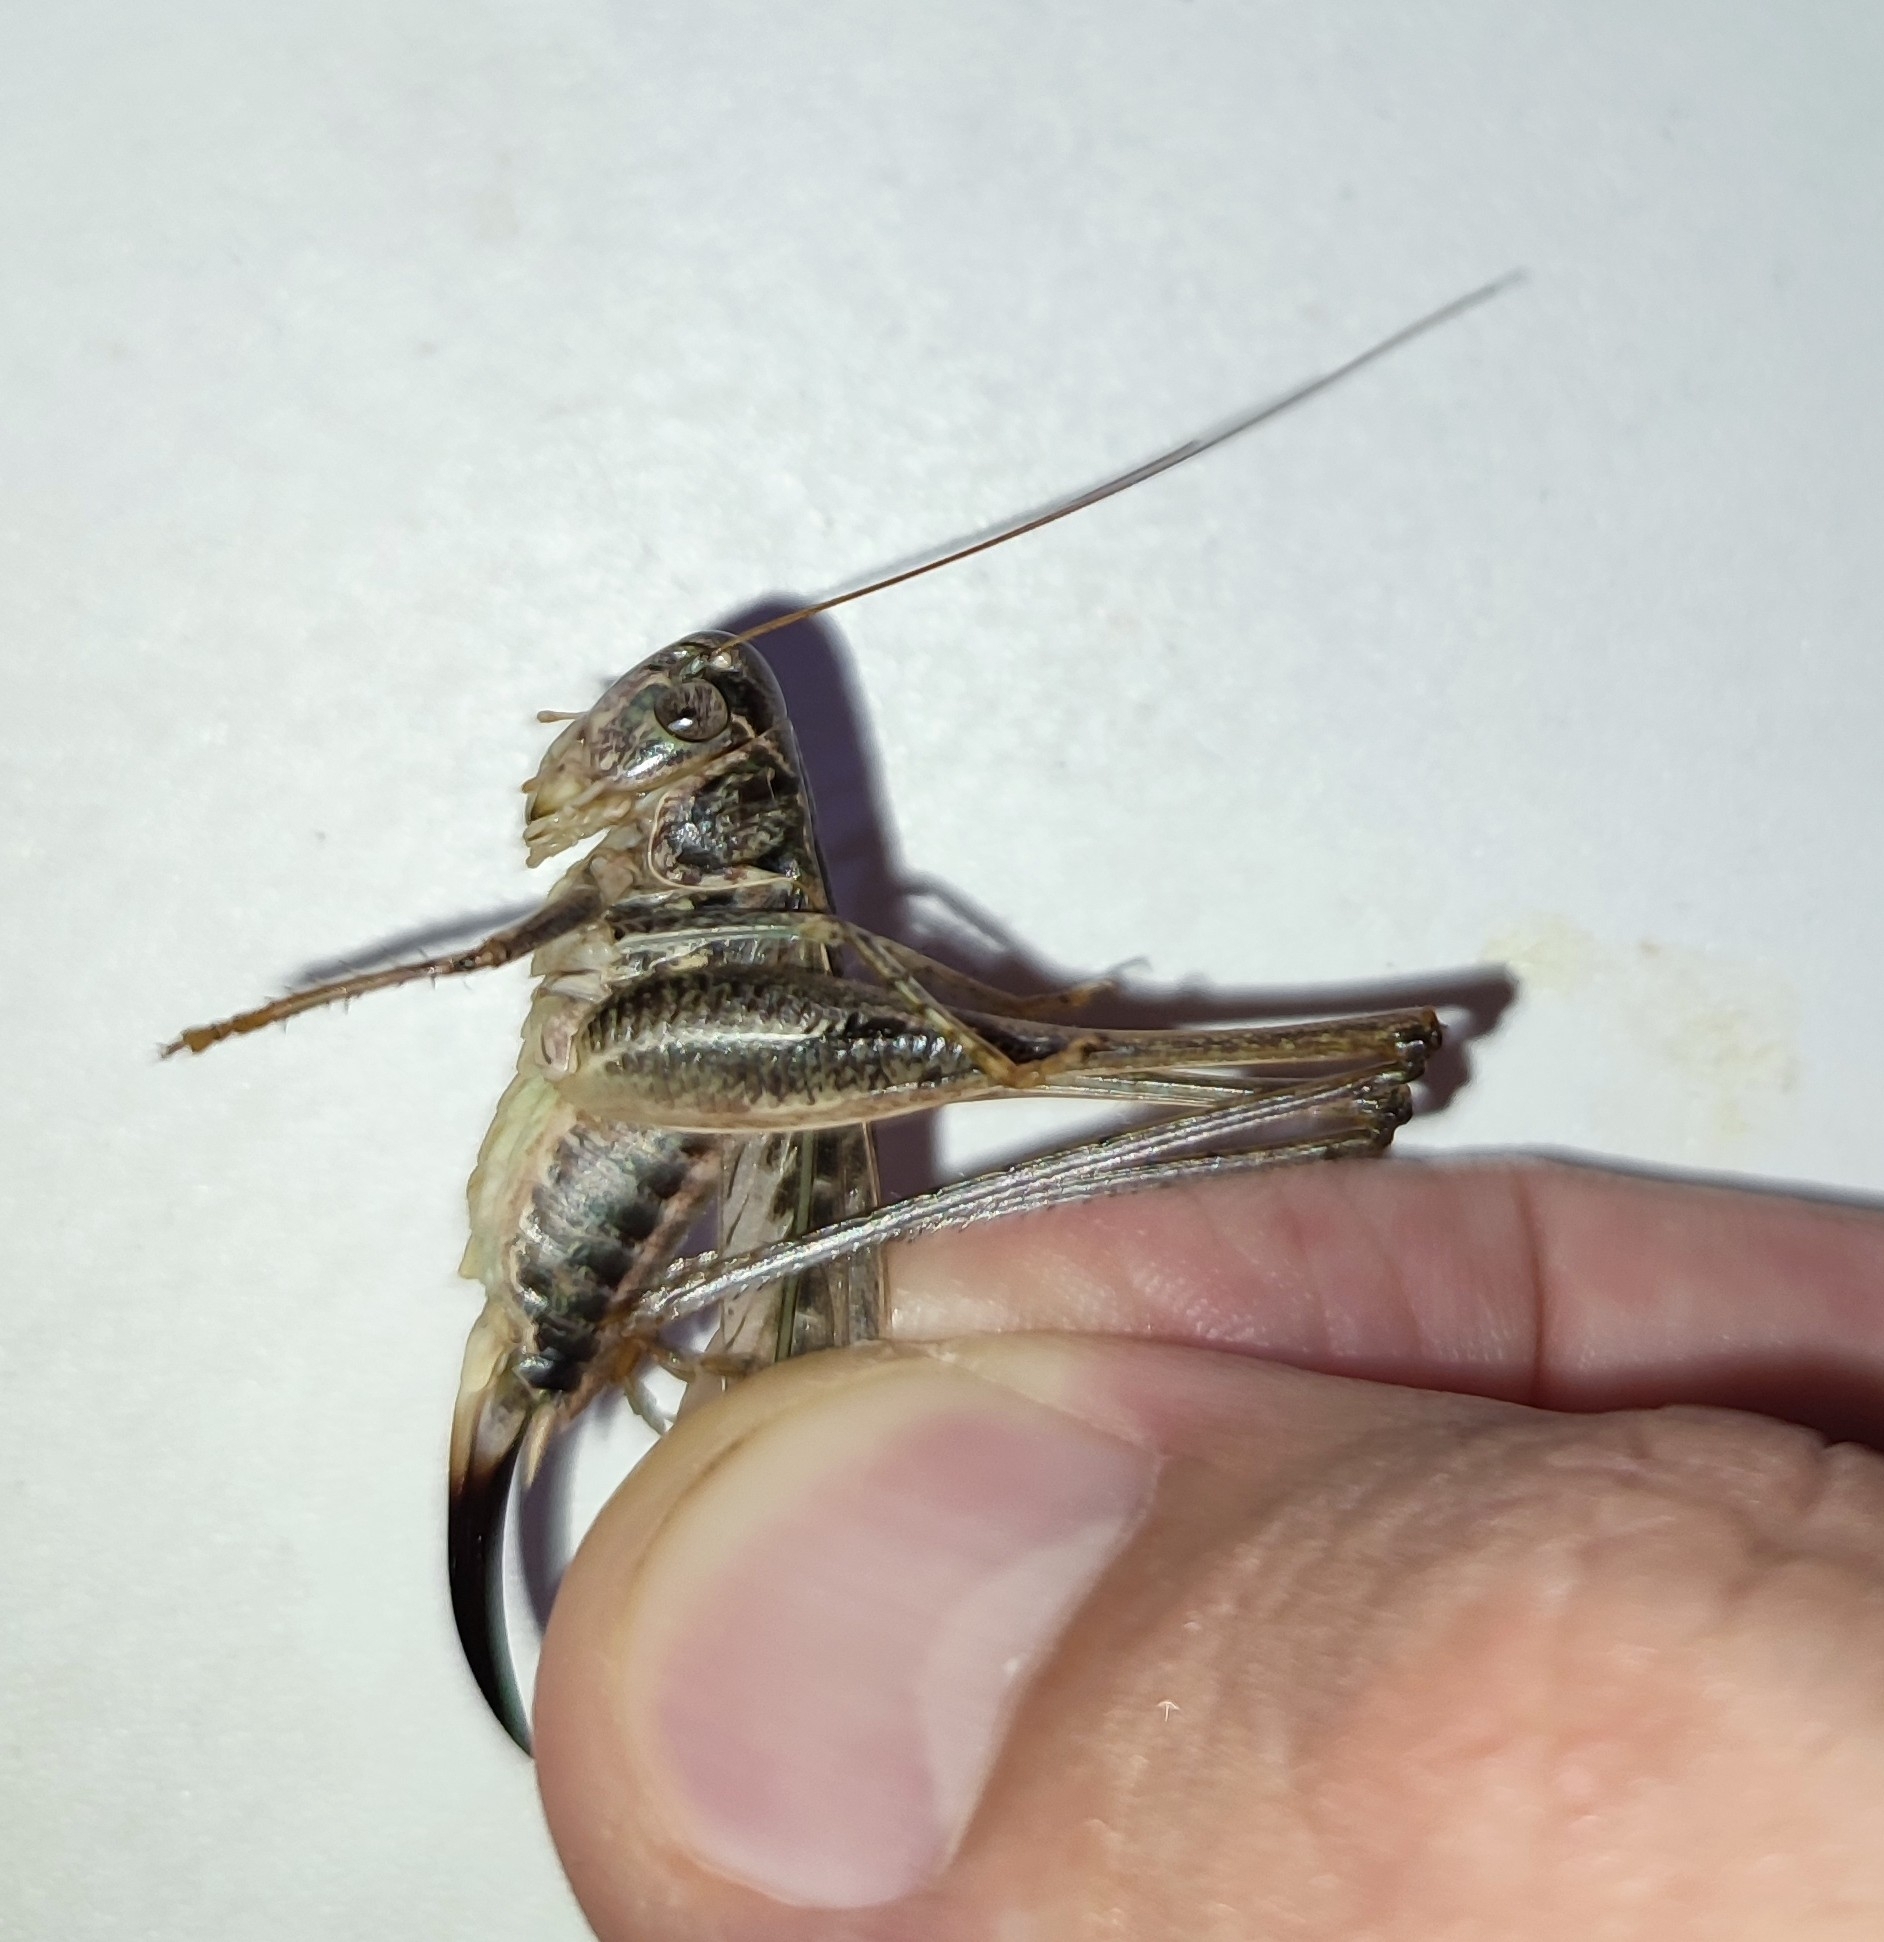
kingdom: Animalia
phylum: Arthropoda
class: Insecta
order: Orthoptera
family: Tettigoniidae
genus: Platycleis
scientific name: Platycleis affinis
